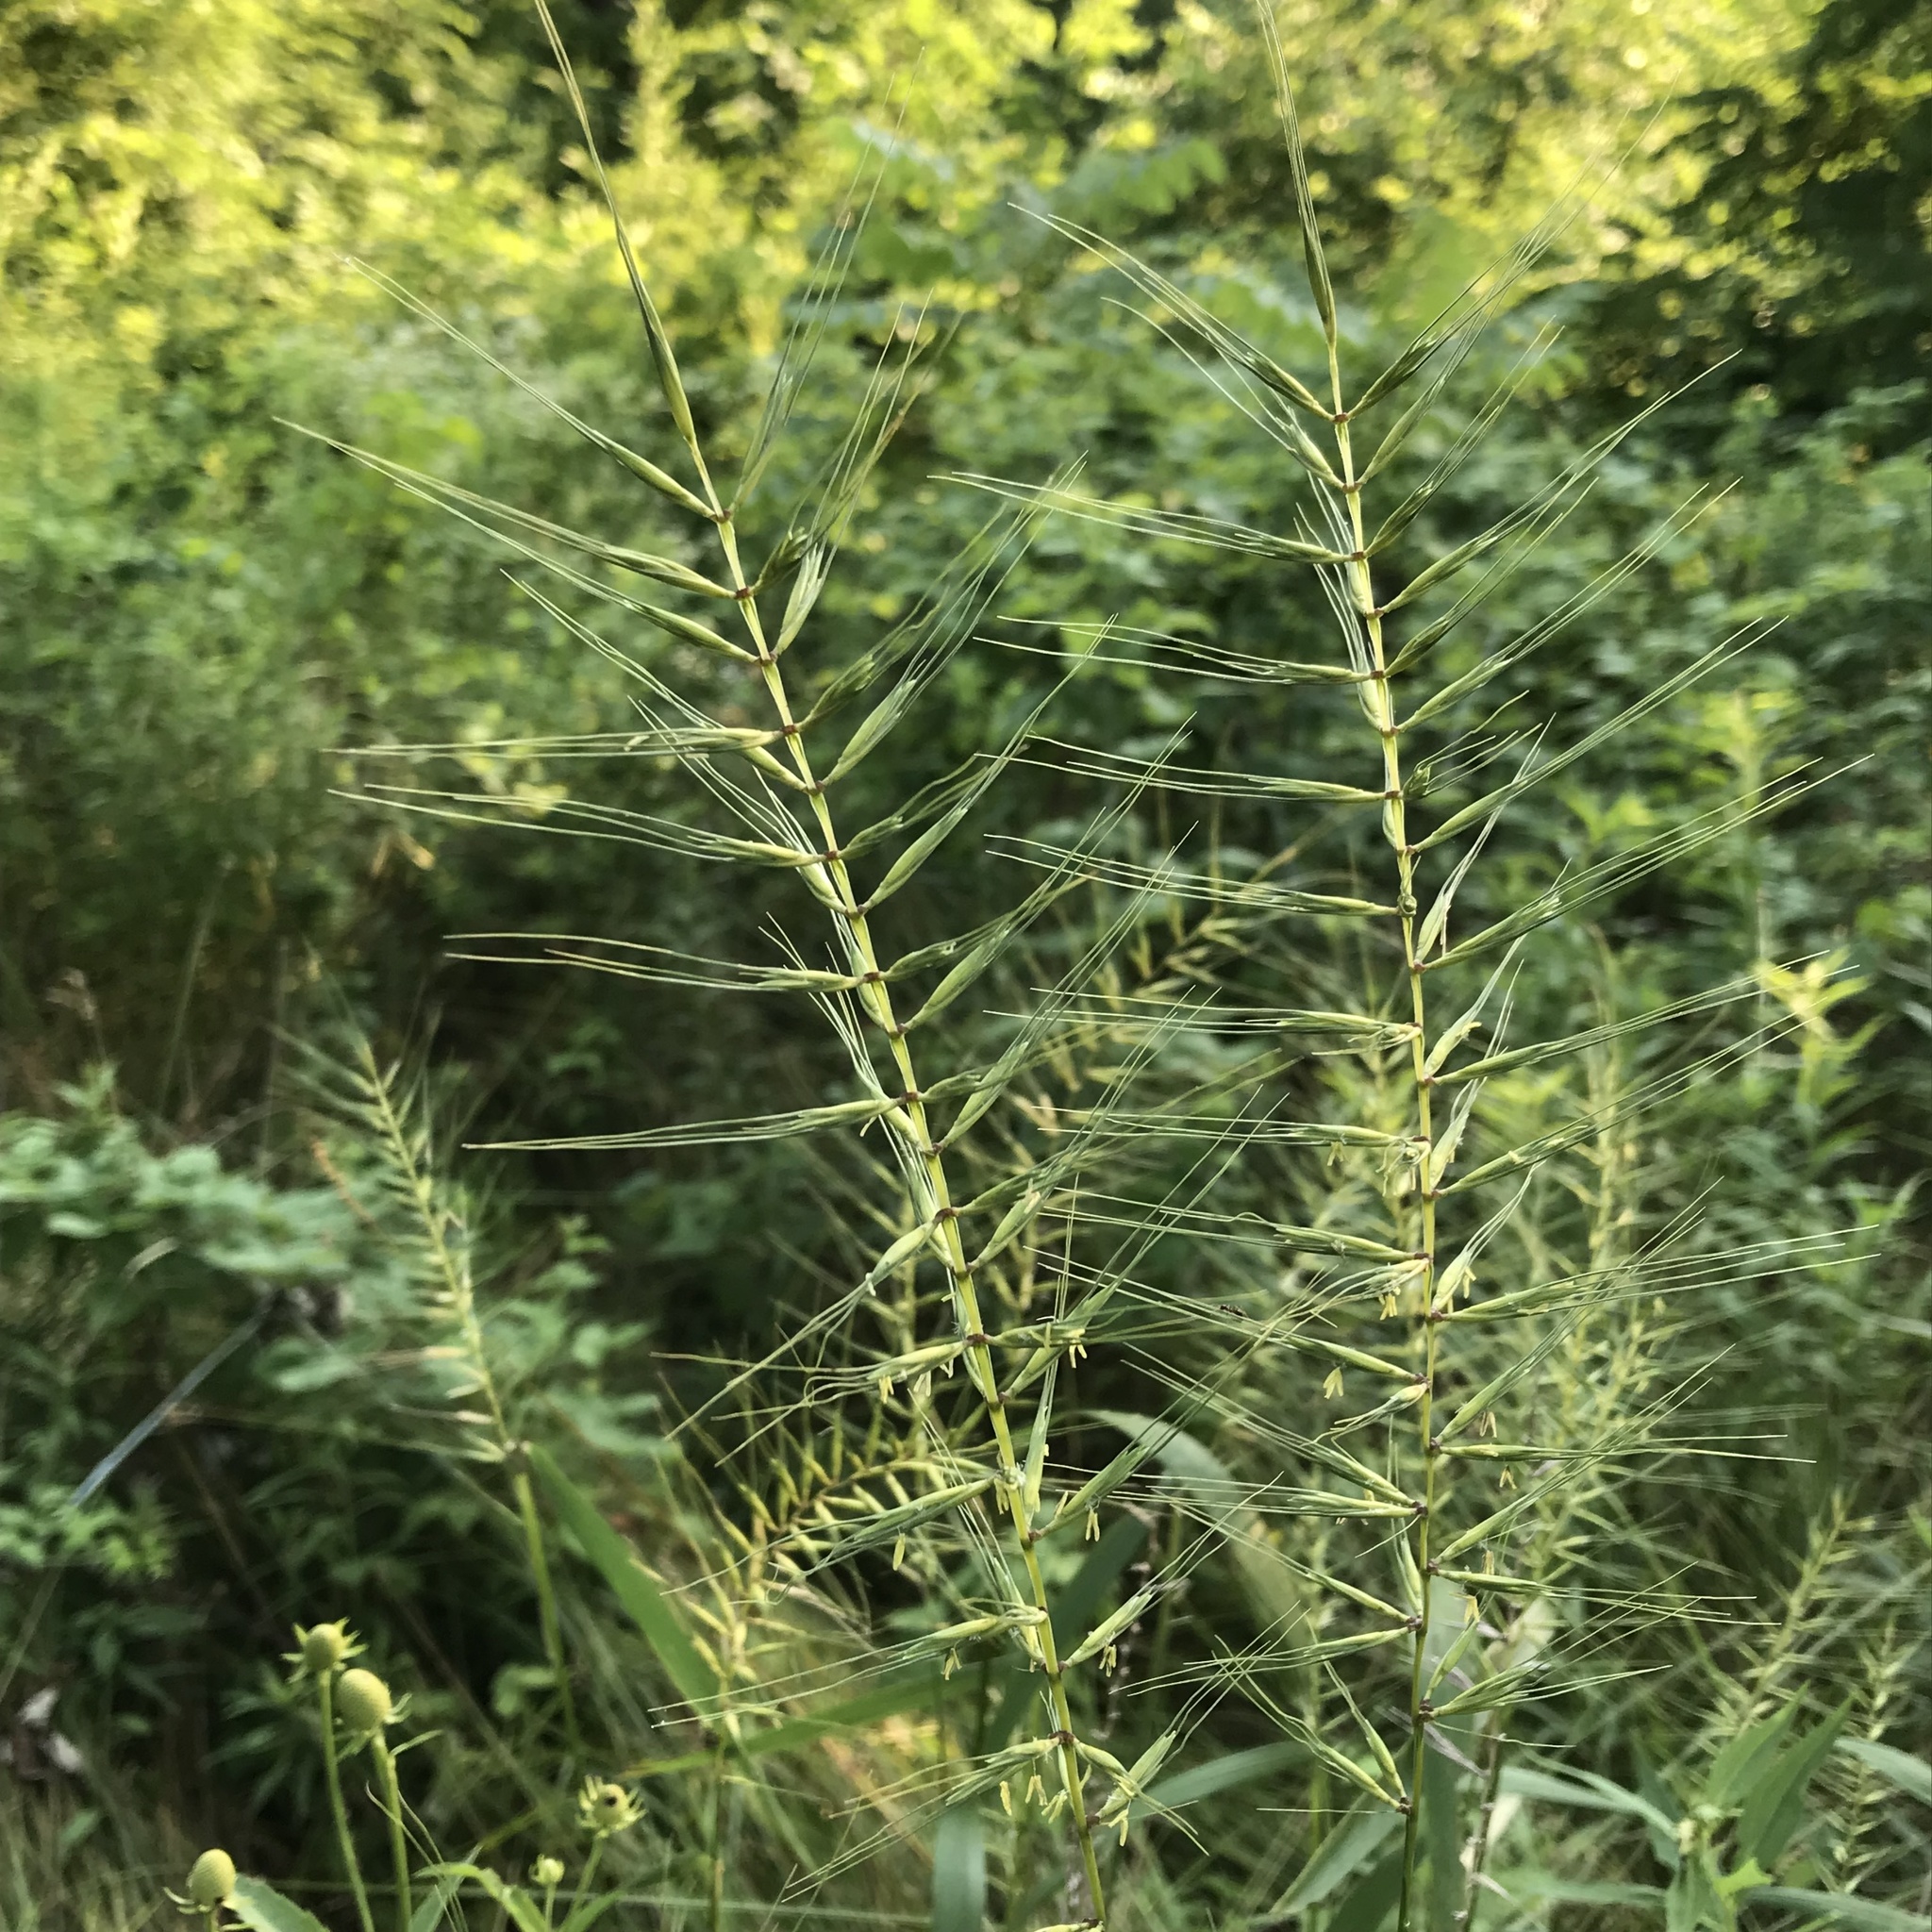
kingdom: Plantae
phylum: Tracheophyta
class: Liliopsida
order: Poales
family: Poaceae
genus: Elymus
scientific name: Elymus hystrix
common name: Bottlebrush grass
